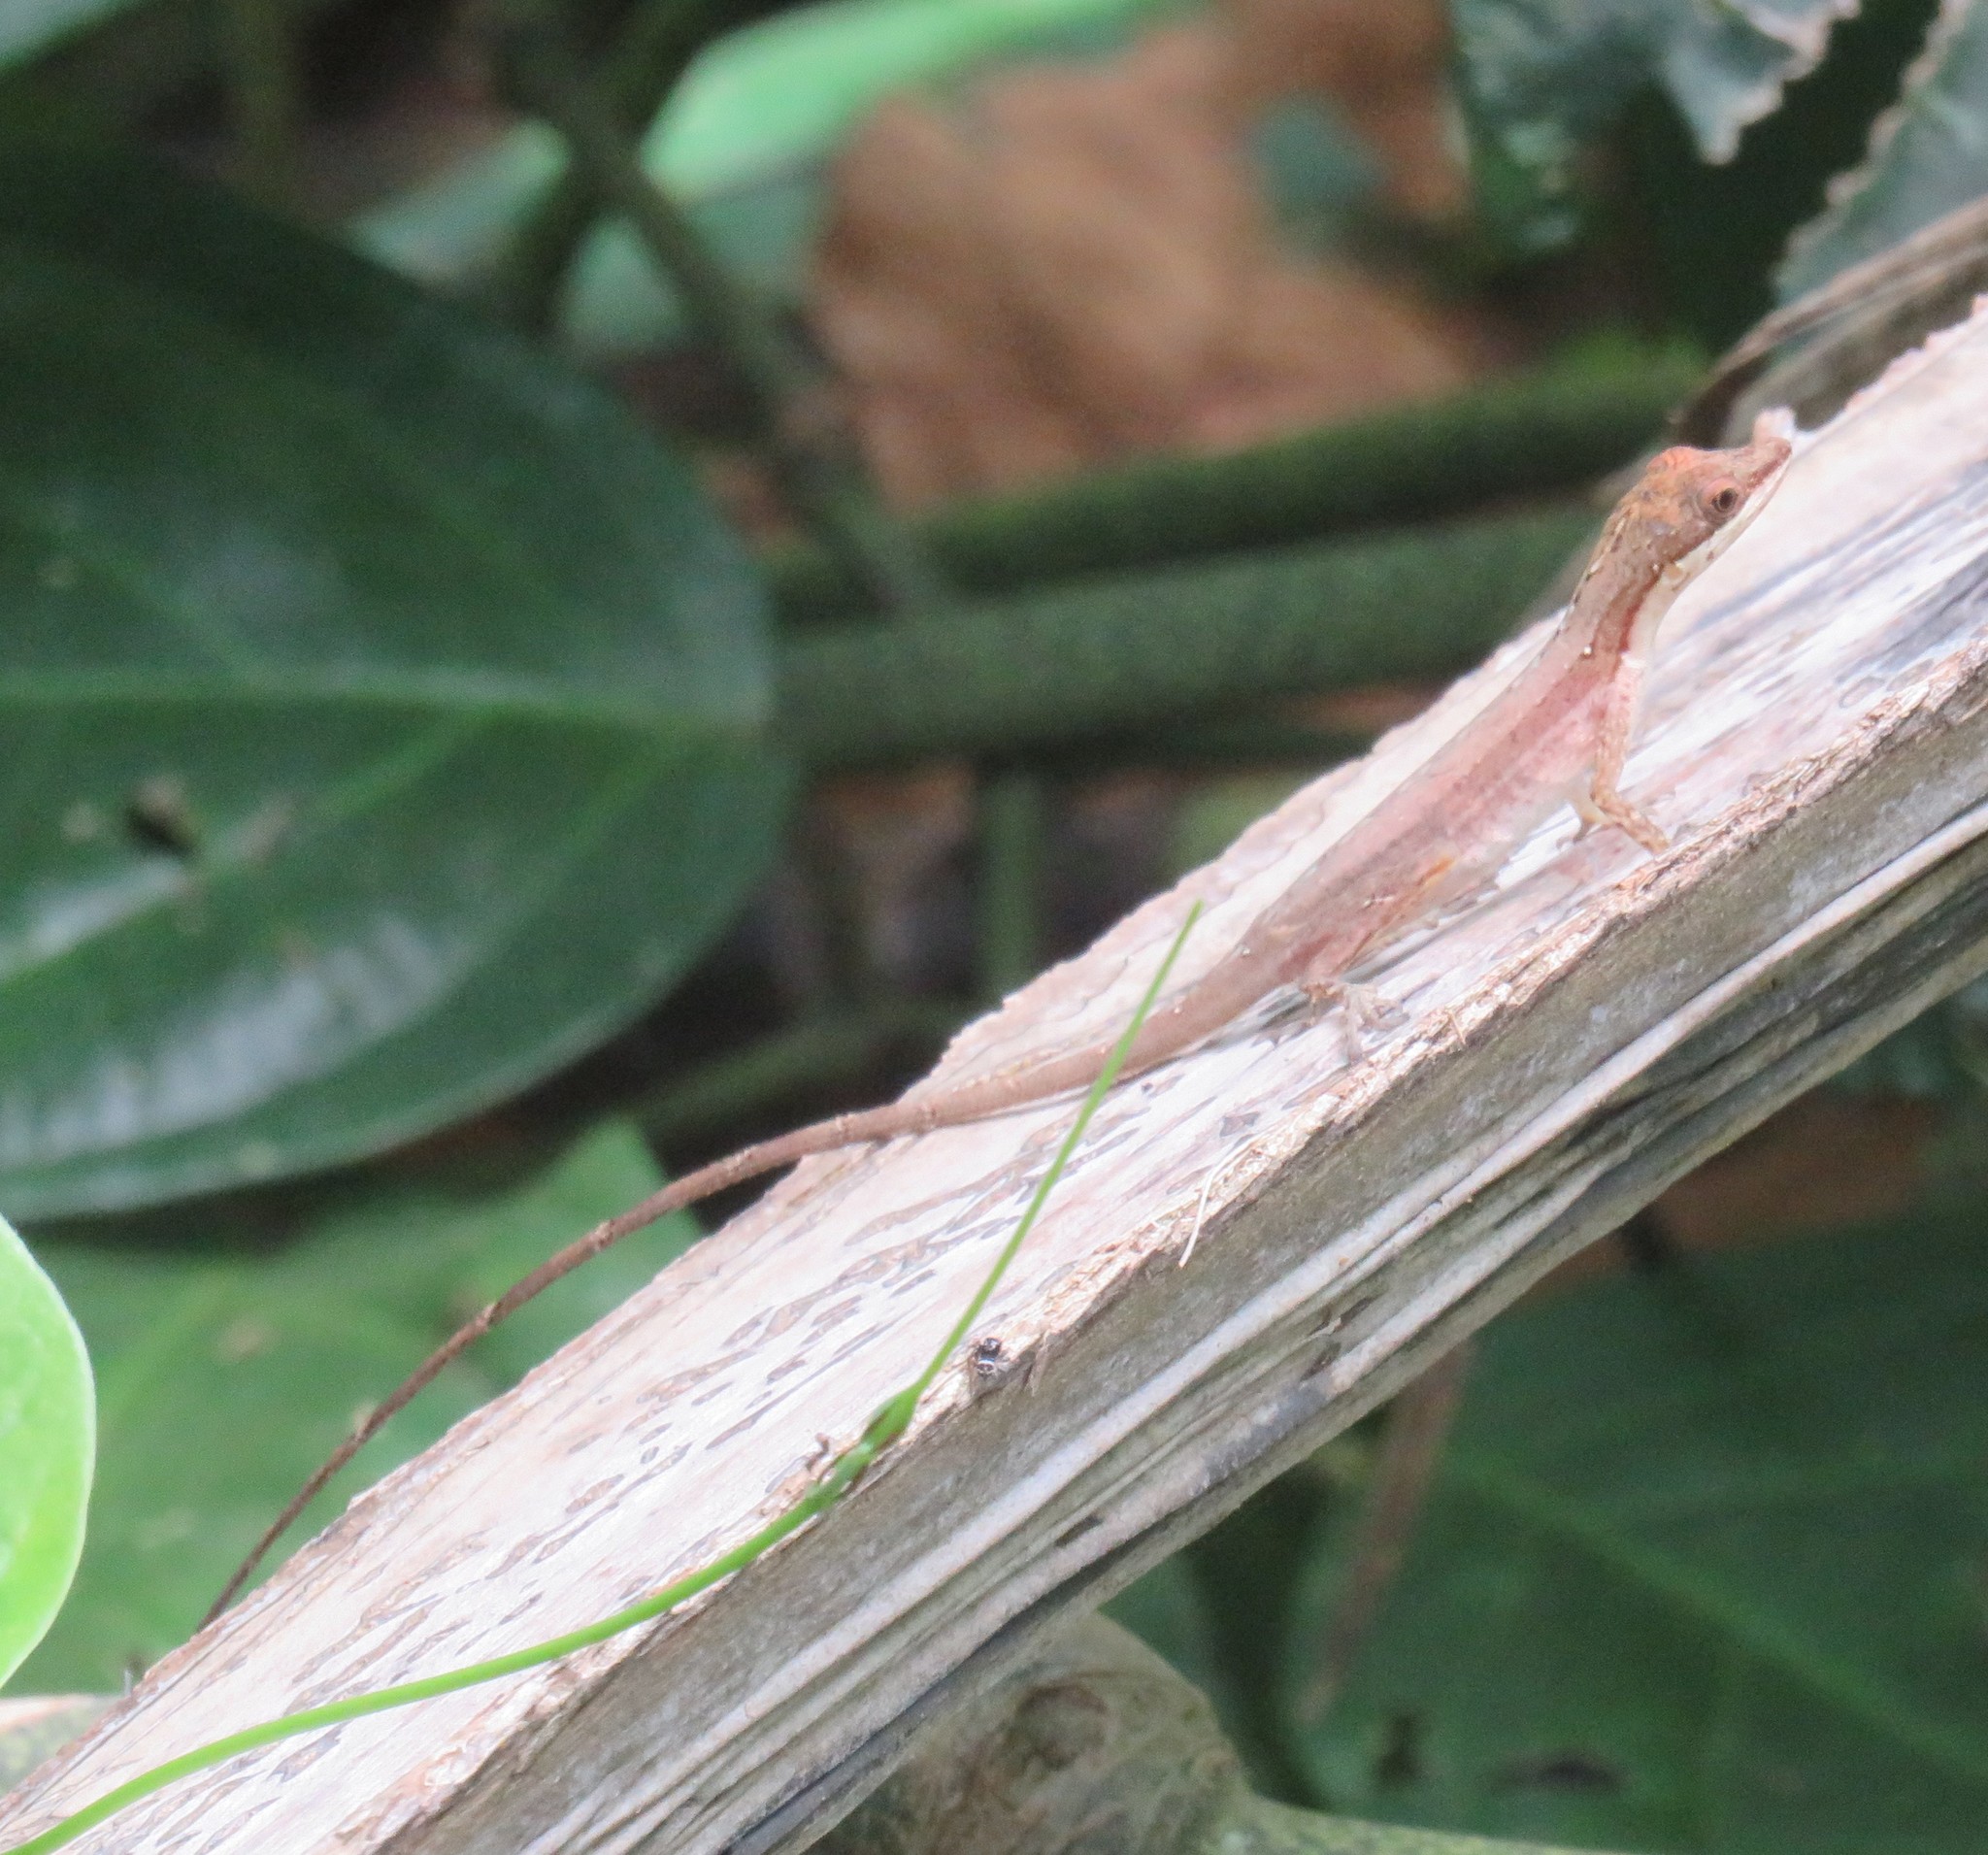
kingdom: Animalia
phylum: Chordata
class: Squamata
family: Dactyloidae
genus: Anolis
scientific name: Anolis limifrons
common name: Border anole
